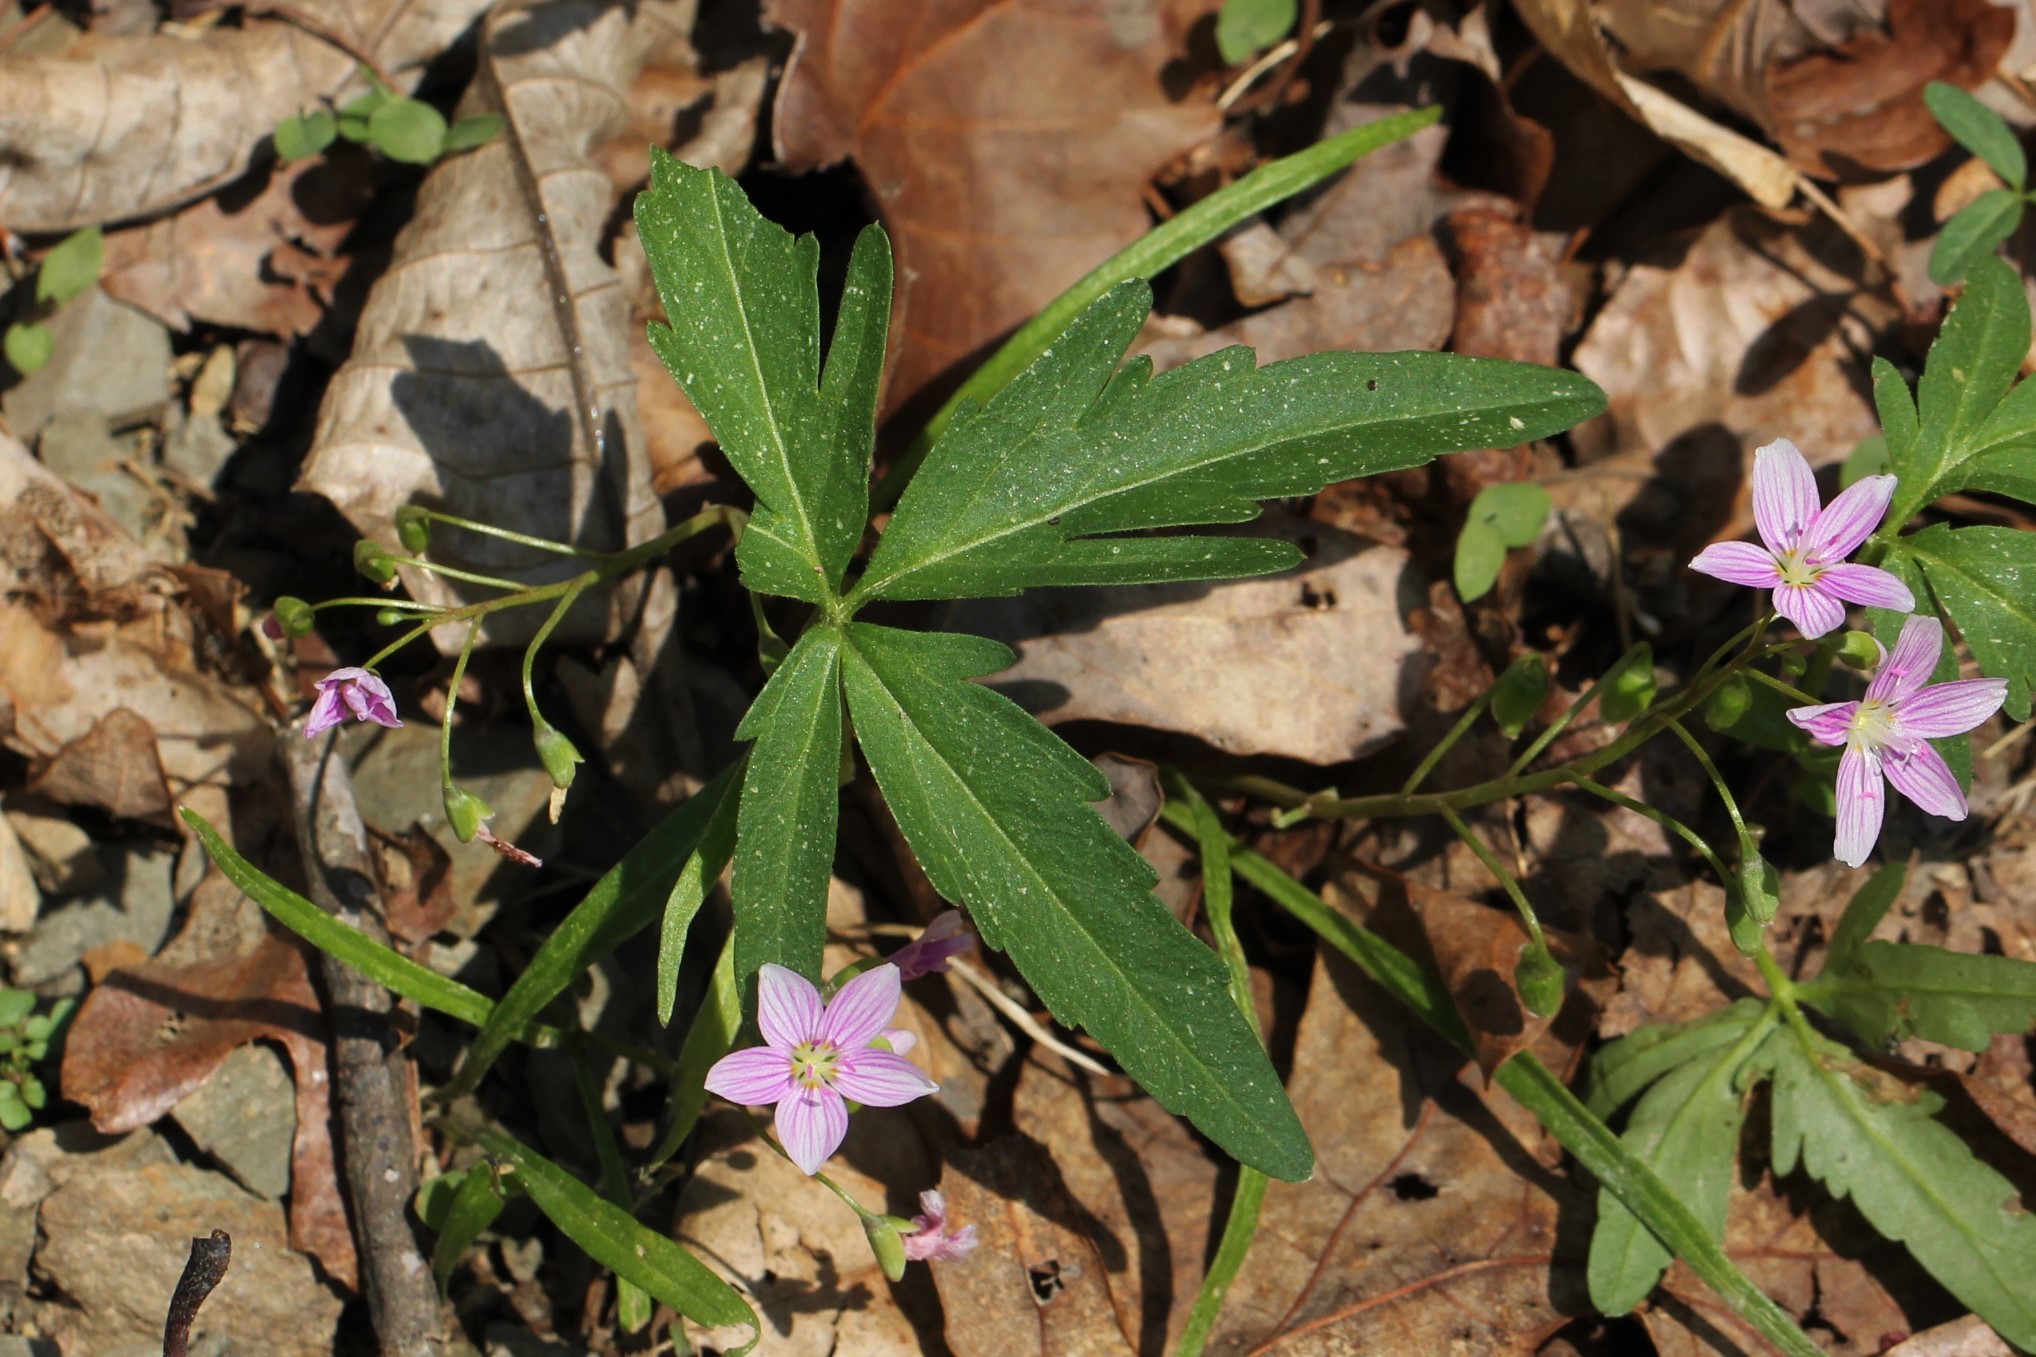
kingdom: Plantae
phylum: Tracheophyta
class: Magnoliopsida
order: Brassicales
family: Brassicaceae
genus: Cardamine
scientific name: Cardamine concatenata
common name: Cut-leaf toothcup
